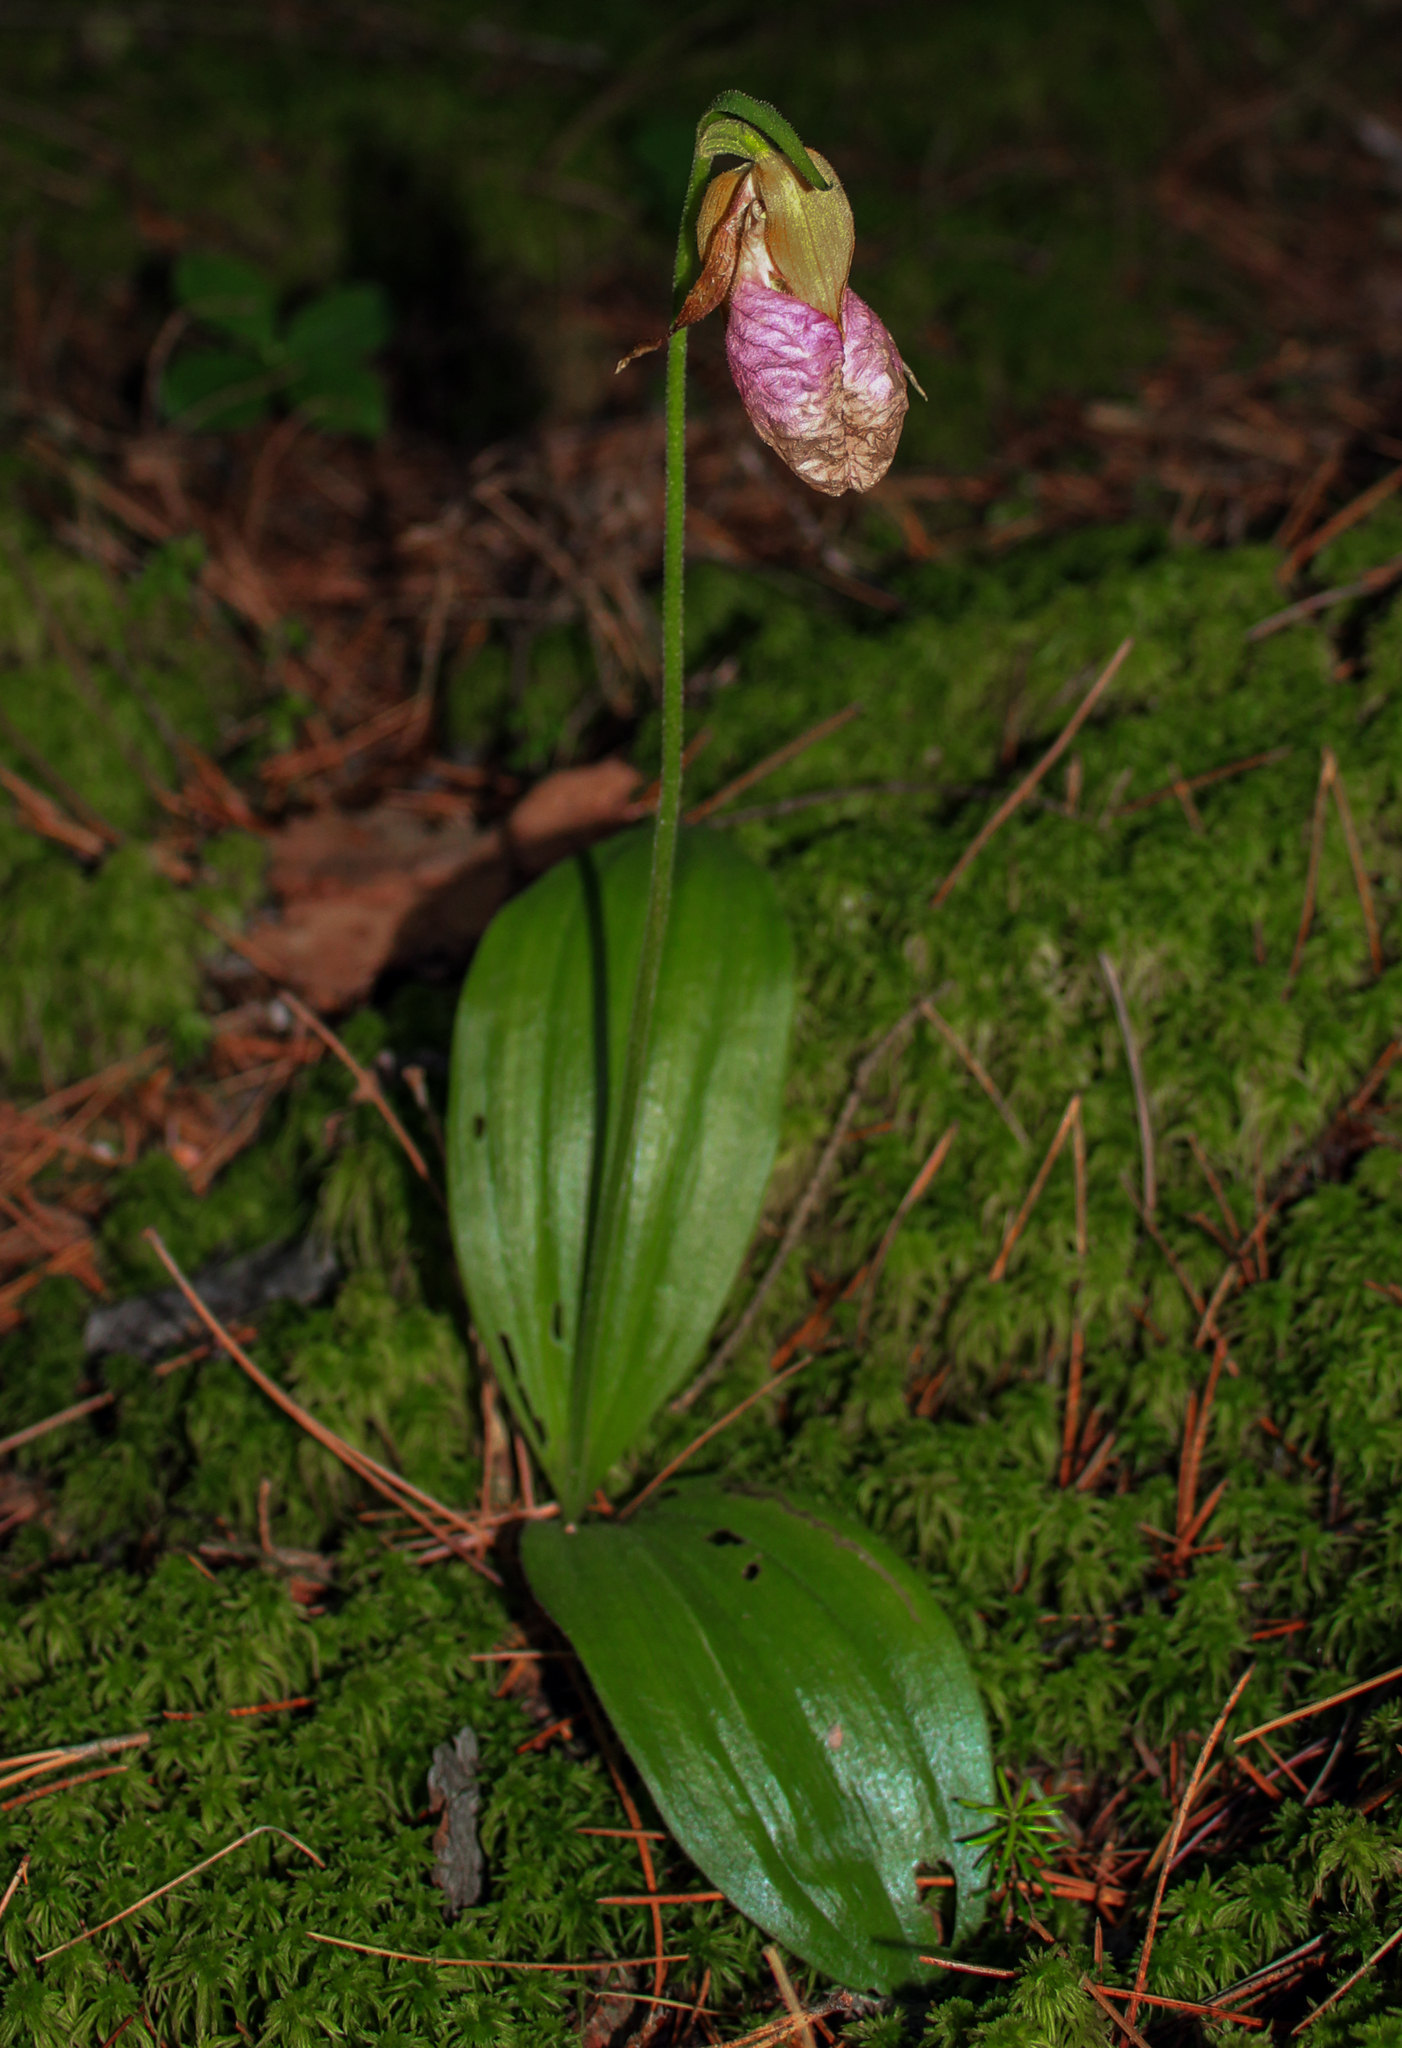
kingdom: Plantae
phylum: Tracheophyta
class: Liliopsida
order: Asparagales
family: Orchidaceae
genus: Cypripedium
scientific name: Cypripedium acaule
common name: Pink lady's-slipper
